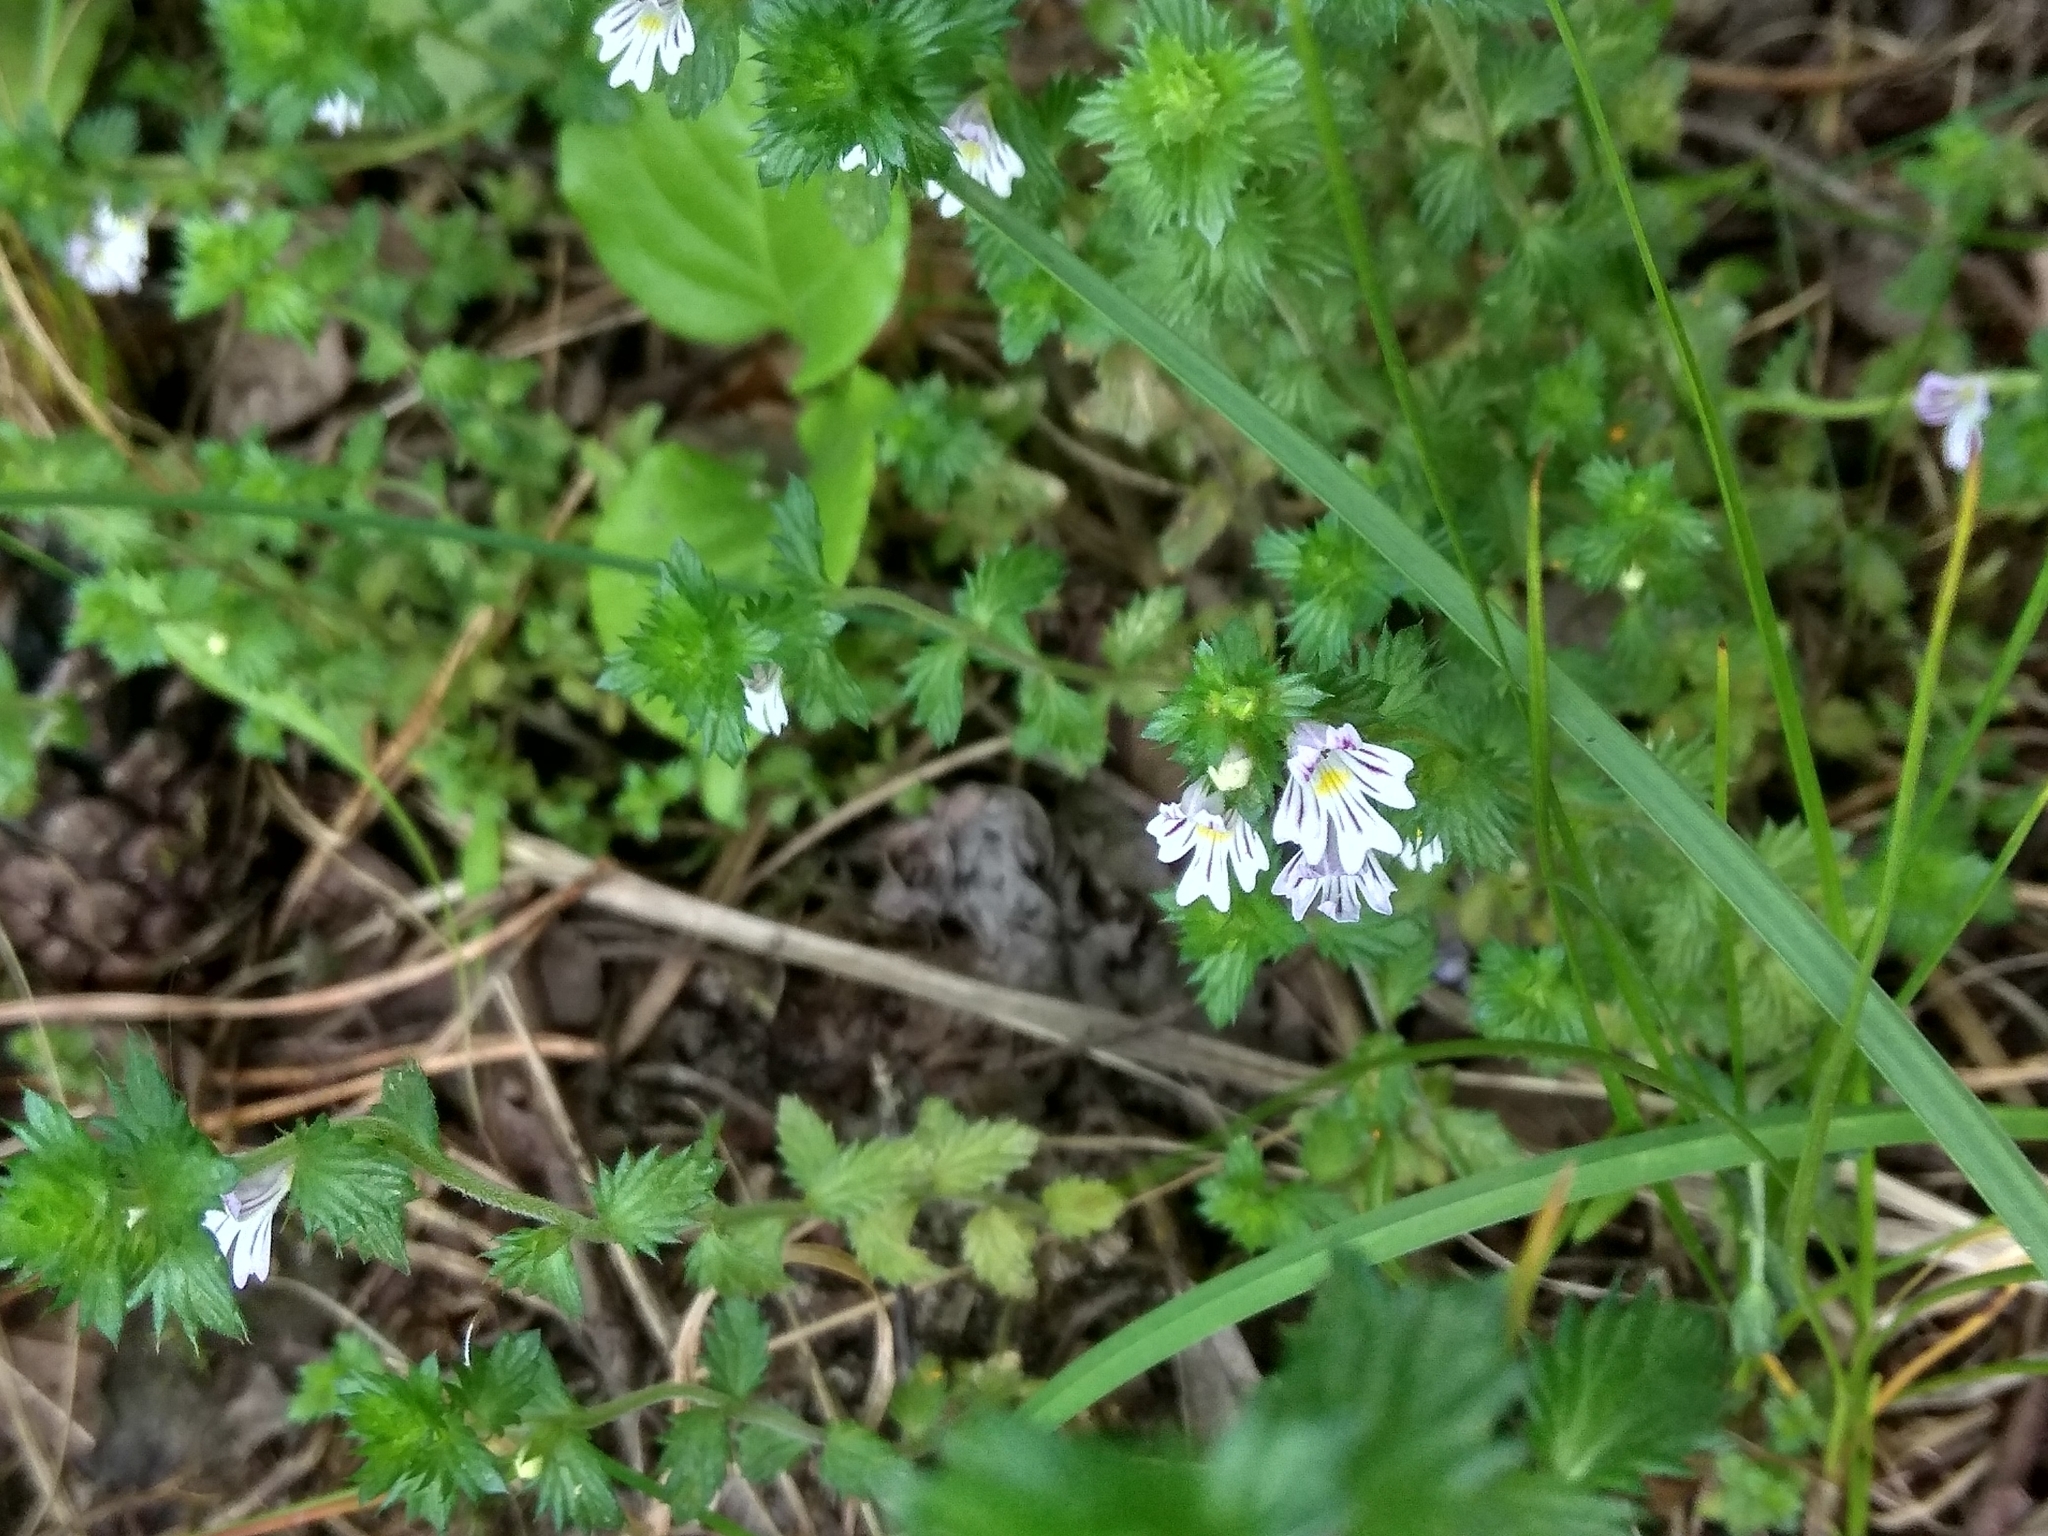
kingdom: Plantae
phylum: Tracheophyta
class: Magnoliopsida
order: Lamiales
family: Orobanchaceae
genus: Euphrasia
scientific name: Euphrasia
